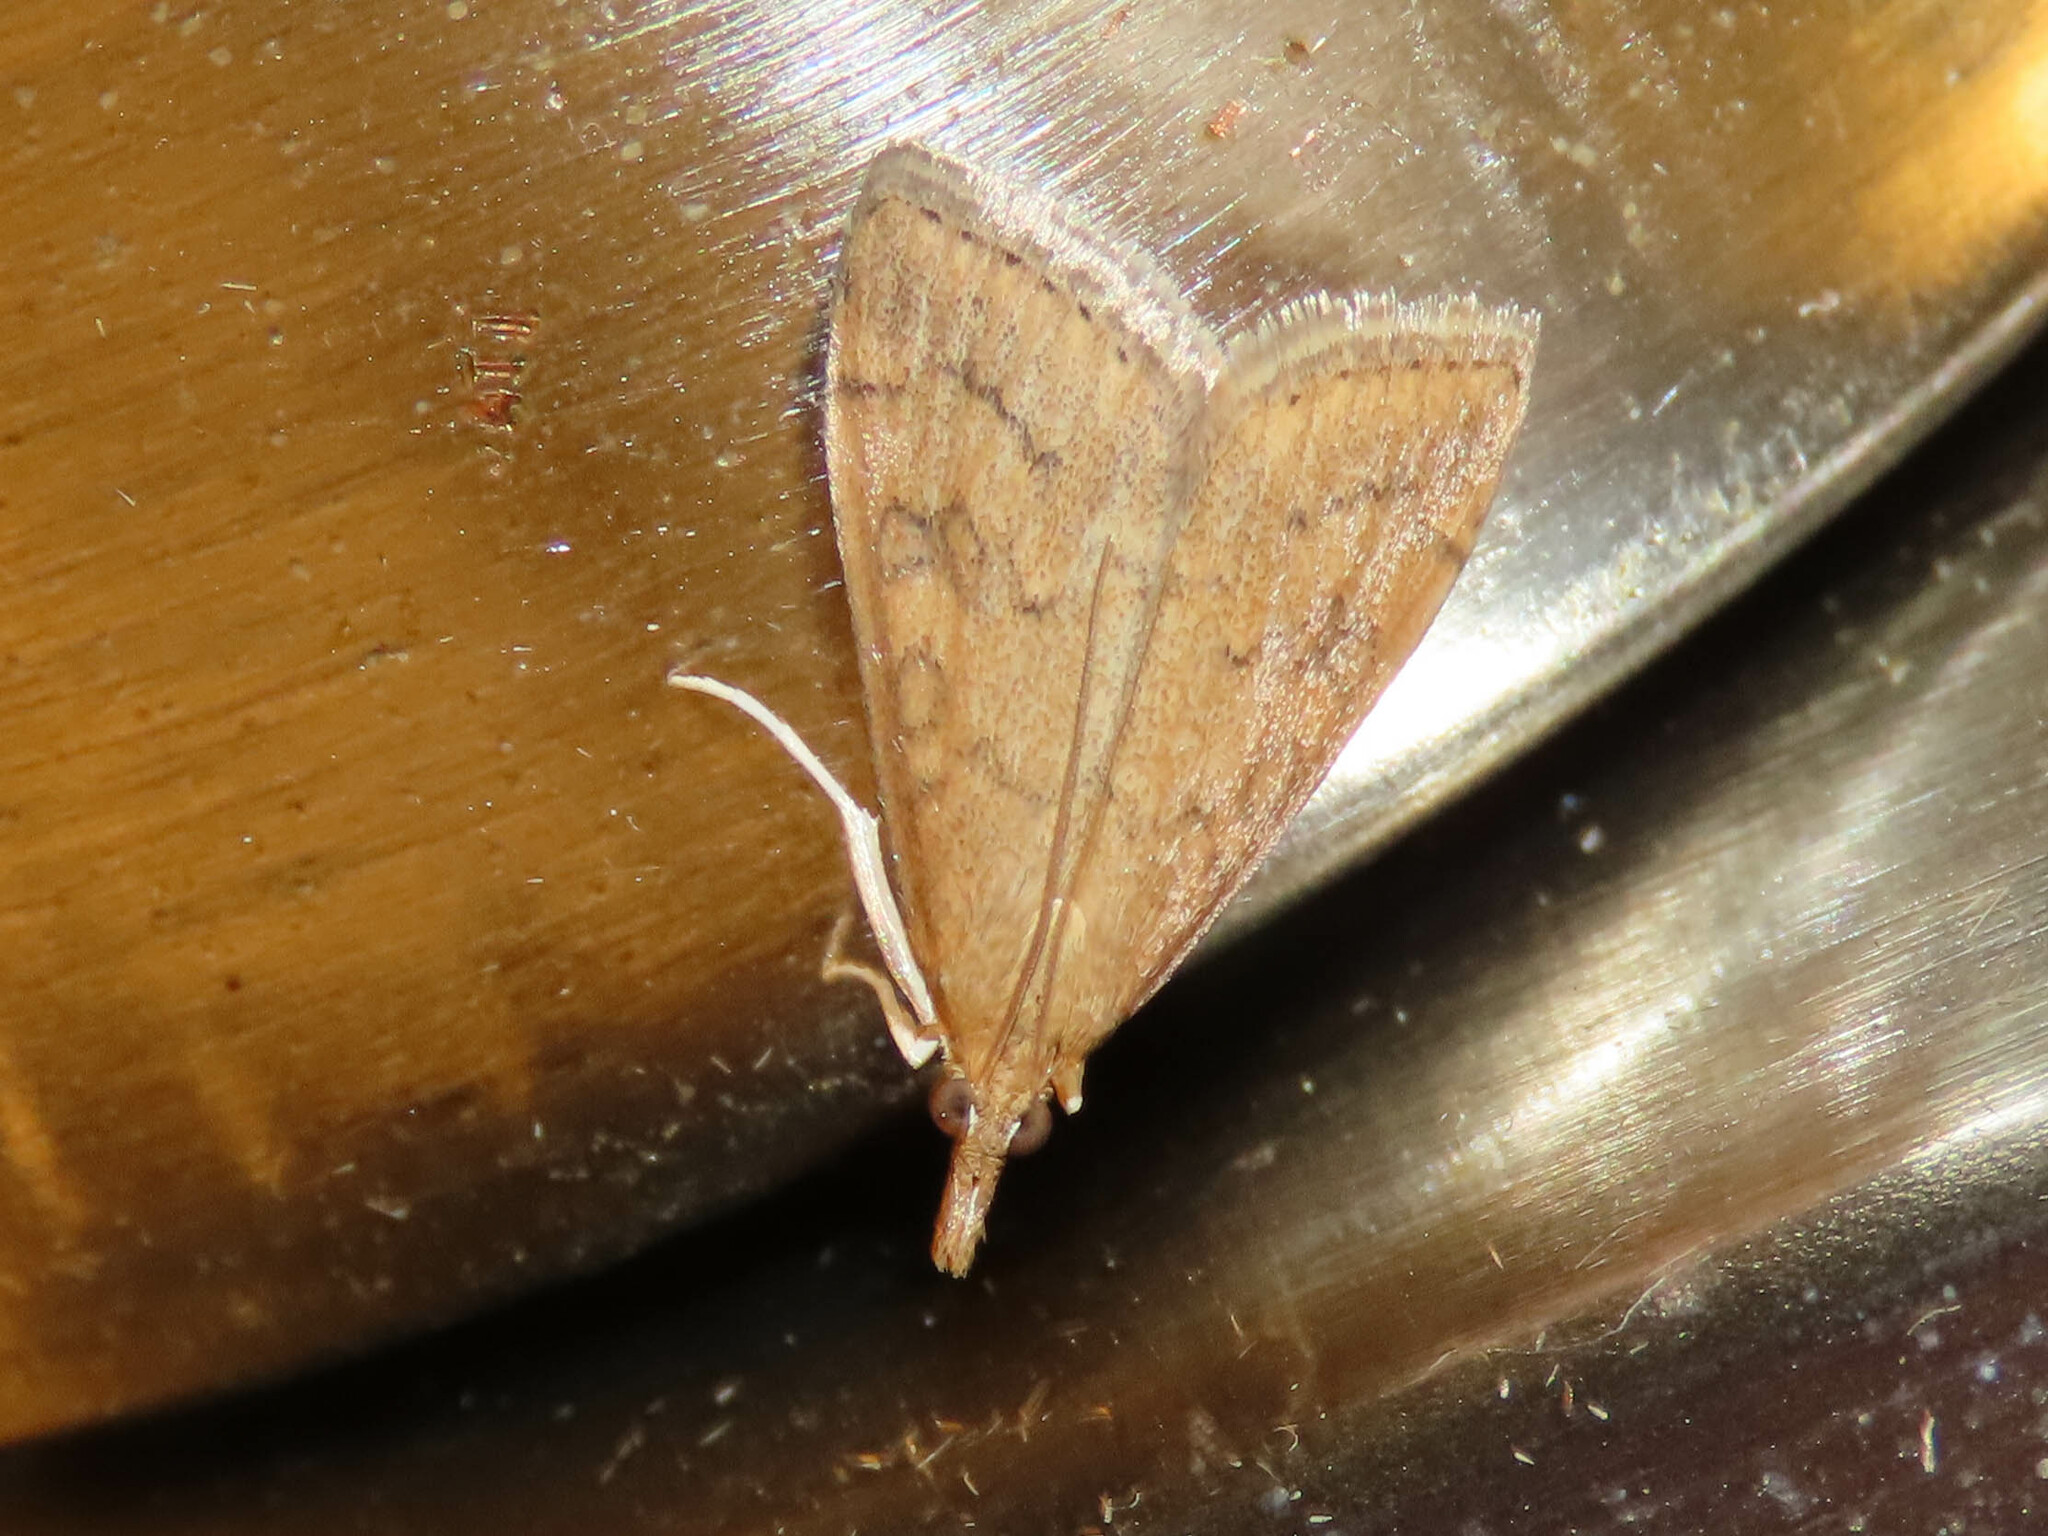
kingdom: Animalia
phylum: Arthropoda
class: Insecta
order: Lepidoptera
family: Crambidae
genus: Udea
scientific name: Udea rubigalis
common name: Celery leaftier moth
